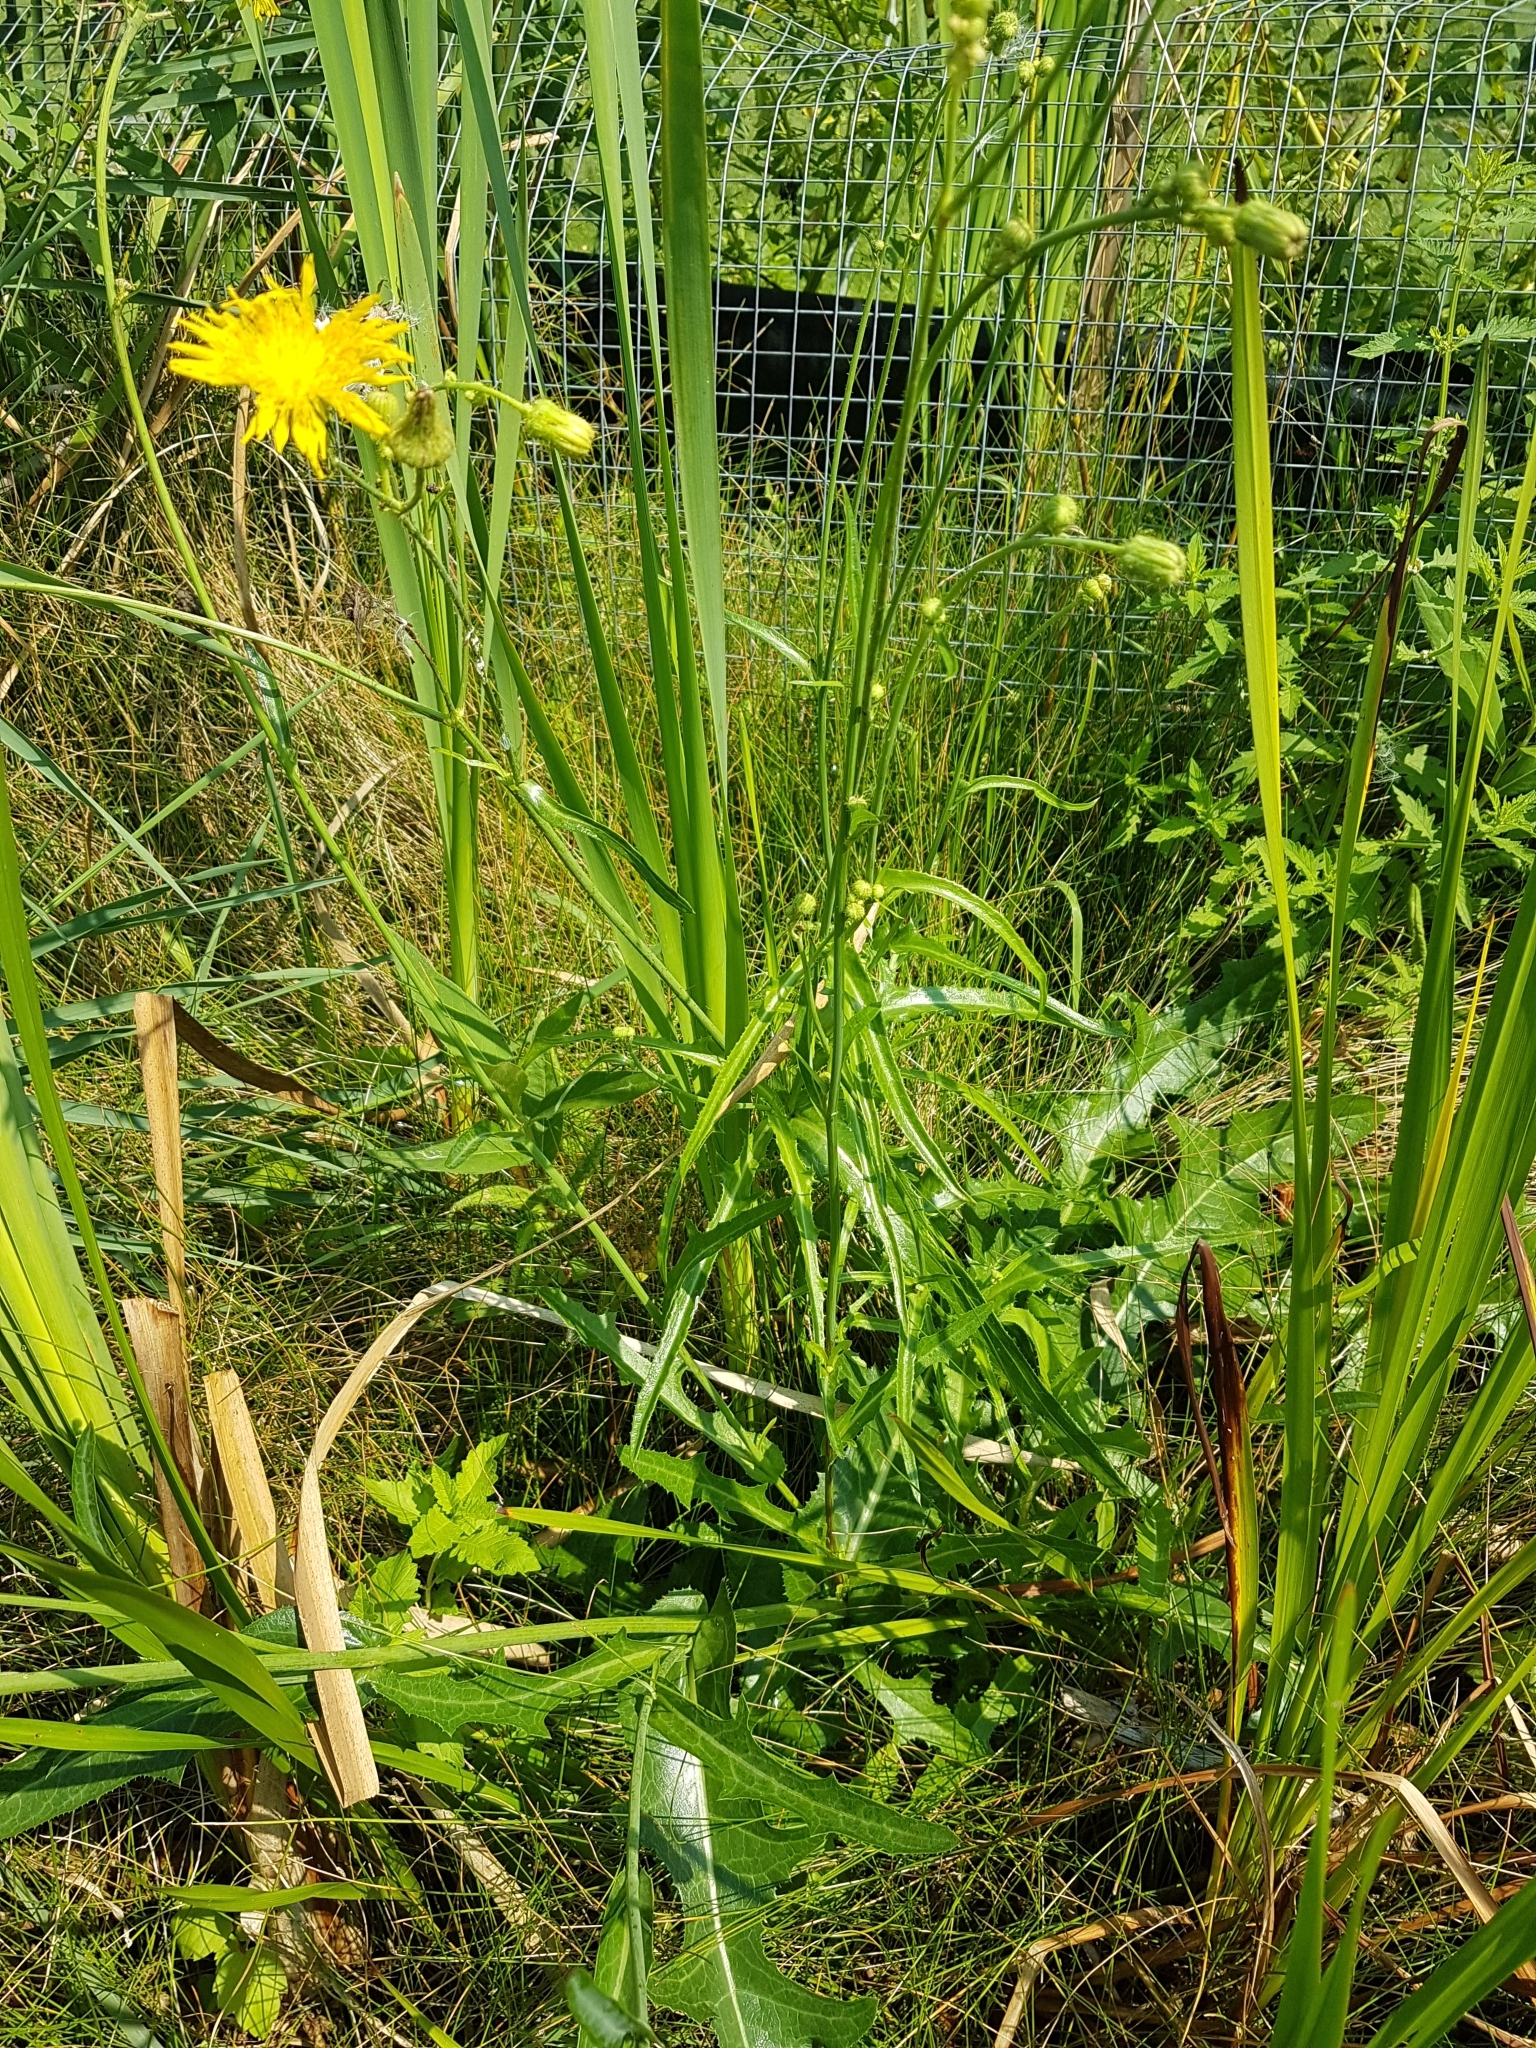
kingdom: Plantae
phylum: Tracheophyta
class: Magnoliopsida
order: Asterales
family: Asteraceae
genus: Sonchus
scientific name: Sonchus arvensis
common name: Perennial sow-thistle
